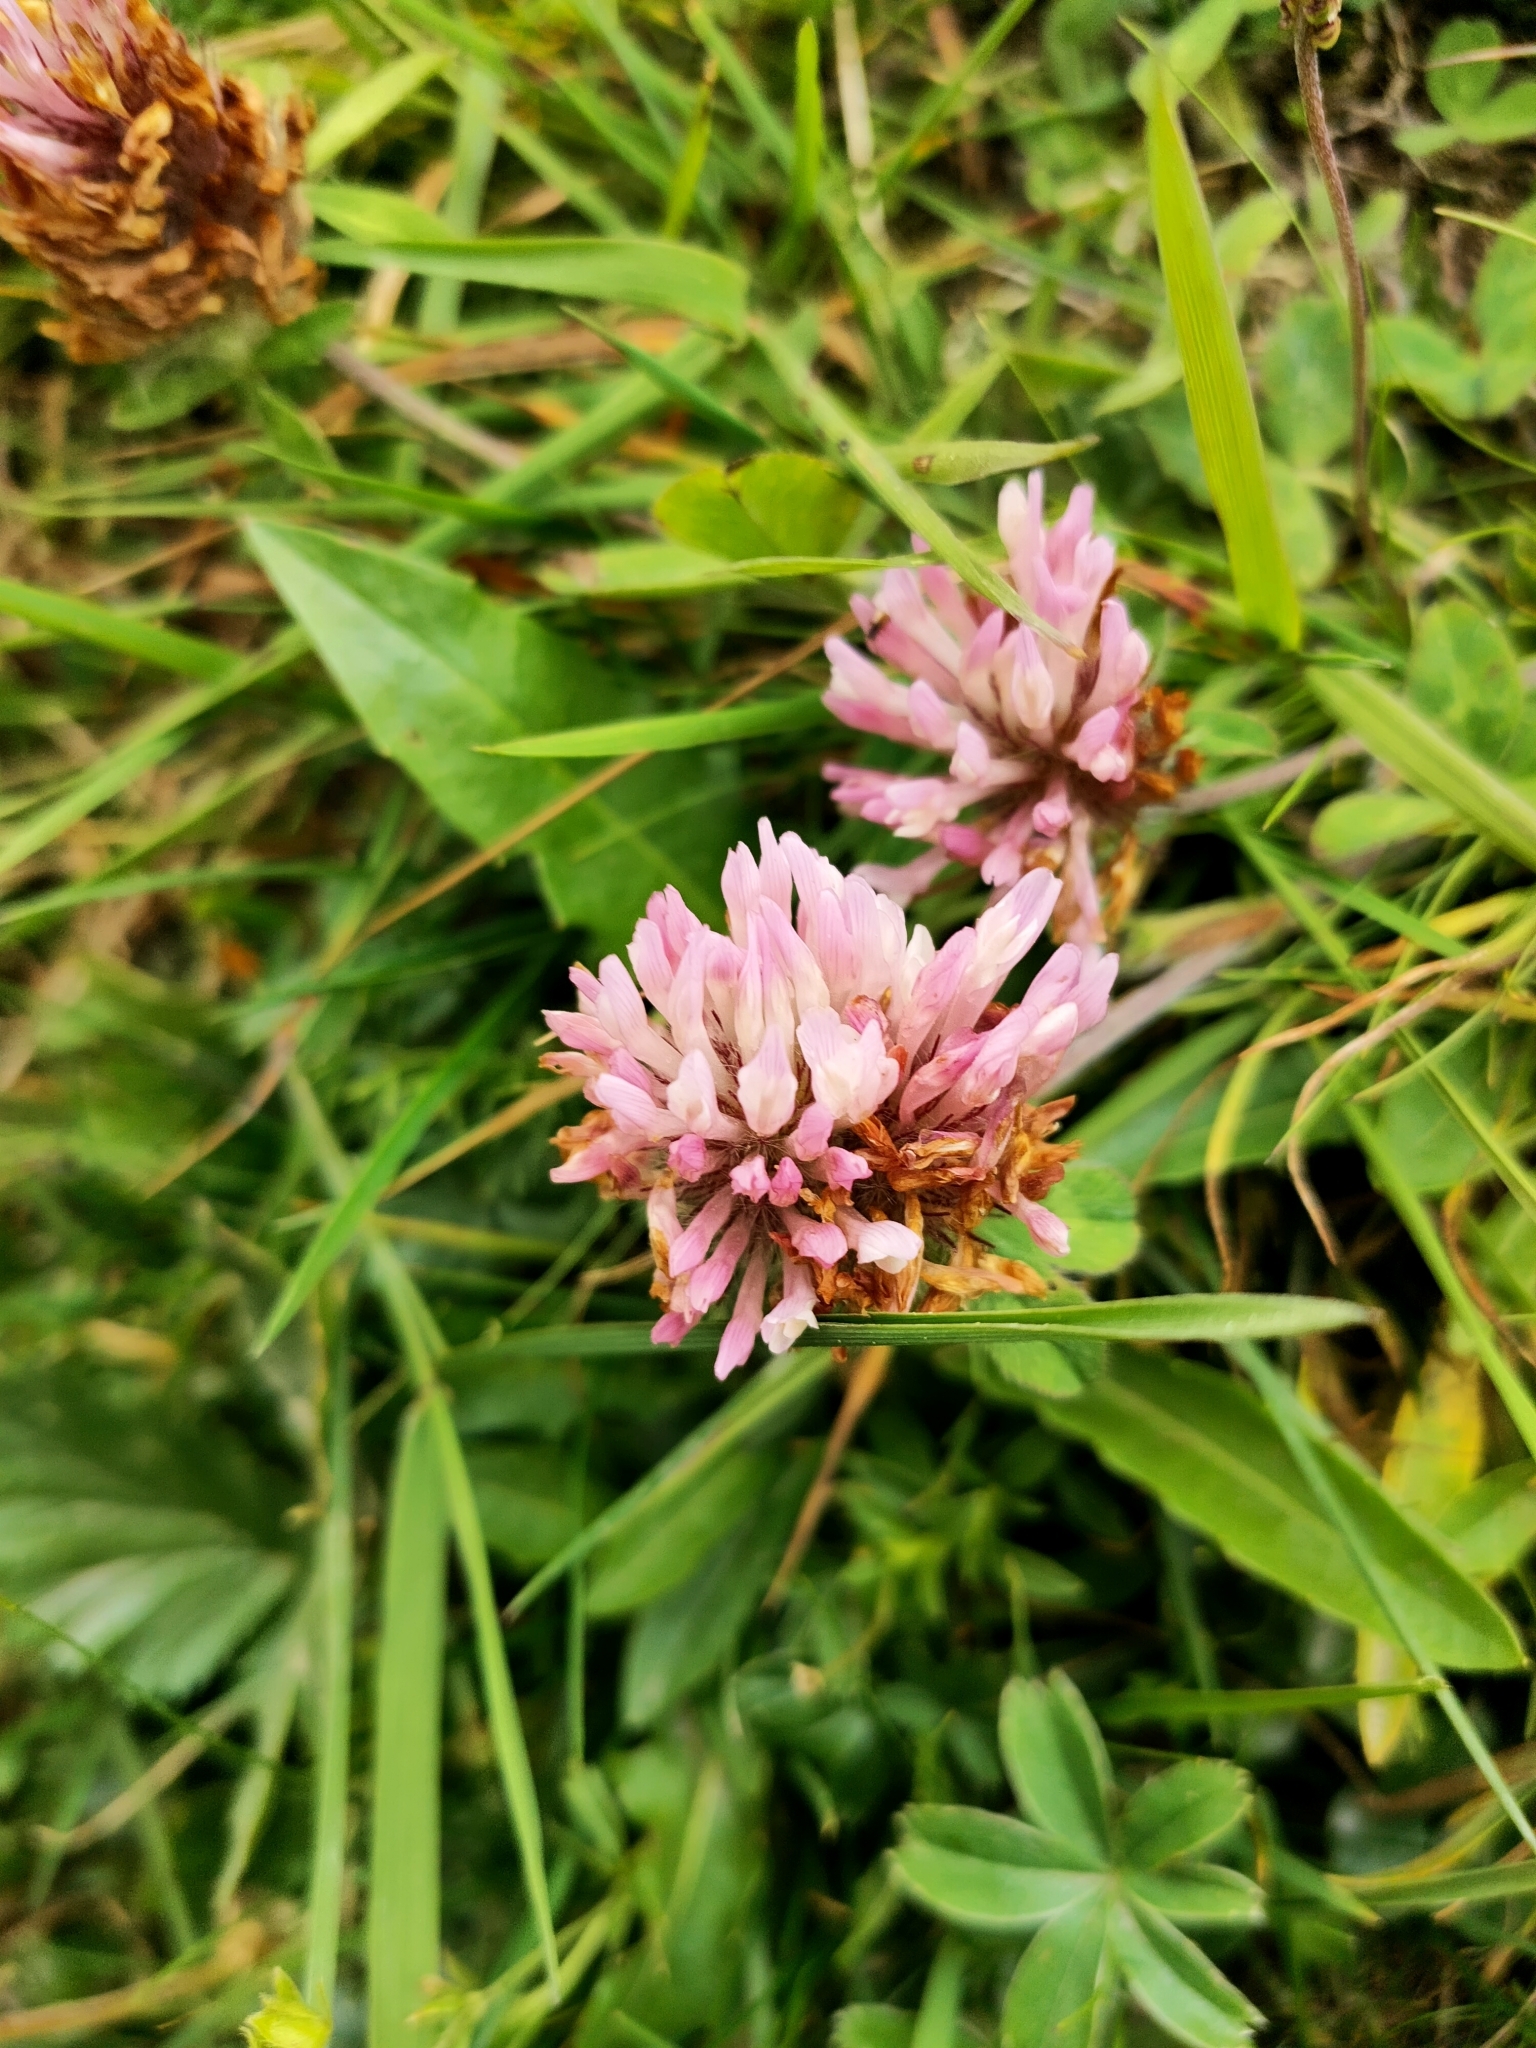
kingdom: Plantae
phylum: Tracheophyta
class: Magnoliopsida
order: Fabales
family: Fabaceae
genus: Trifolium
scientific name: Trifolium pratense
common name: Red clover
